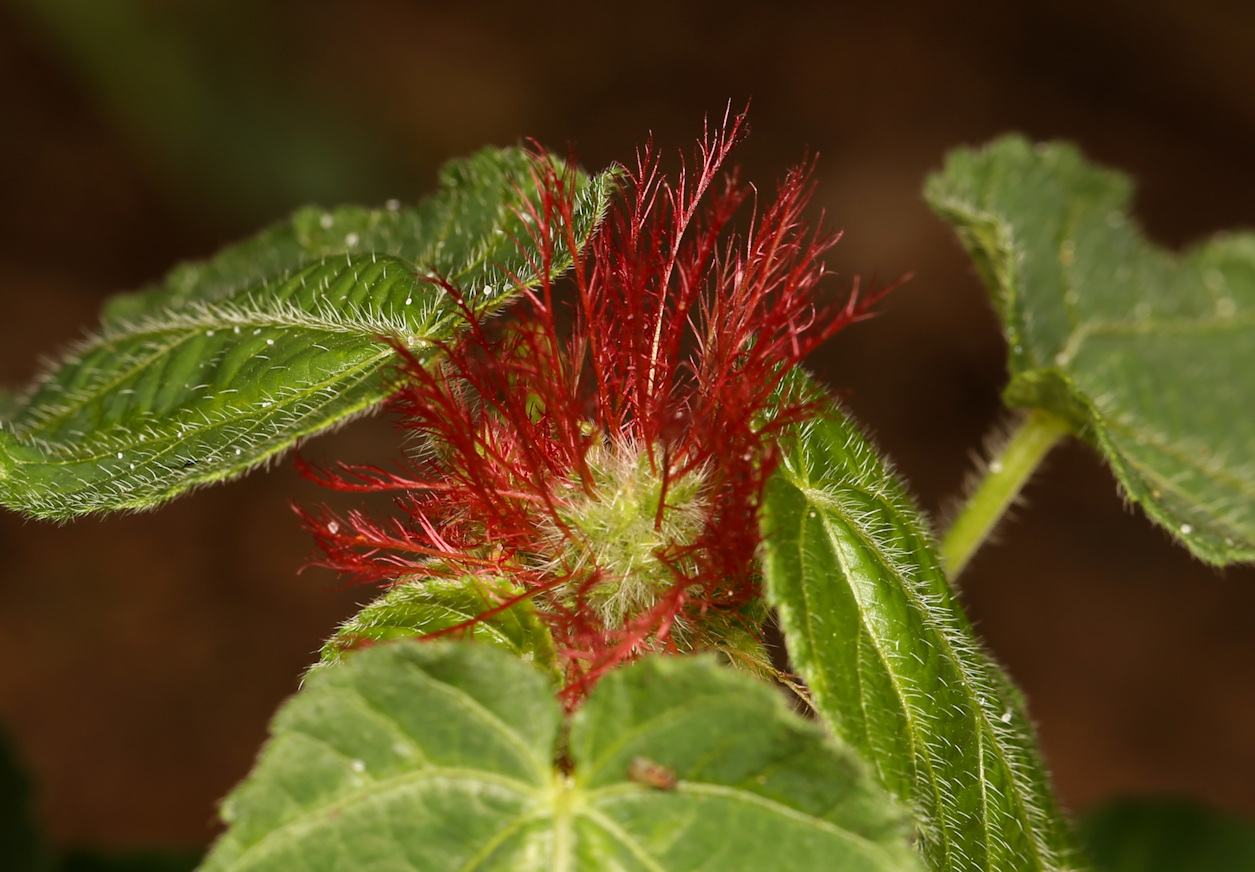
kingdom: Plantae
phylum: Tracheophyta
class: Magnoliopsida
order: Malpighiales
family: Euphorbiaceae
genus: Acalypha
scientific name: Acalypha petiolaris
